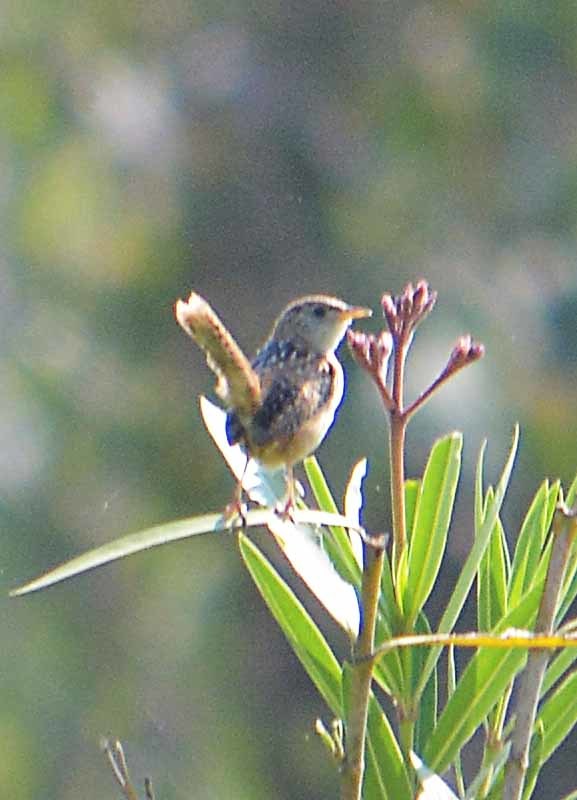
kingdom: Animalia
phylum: Chordata
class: Aves
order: Passeriformes
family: Troglodytidae
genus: Cistothorus
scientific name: Cistothorus platensis
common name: Sedge wren
